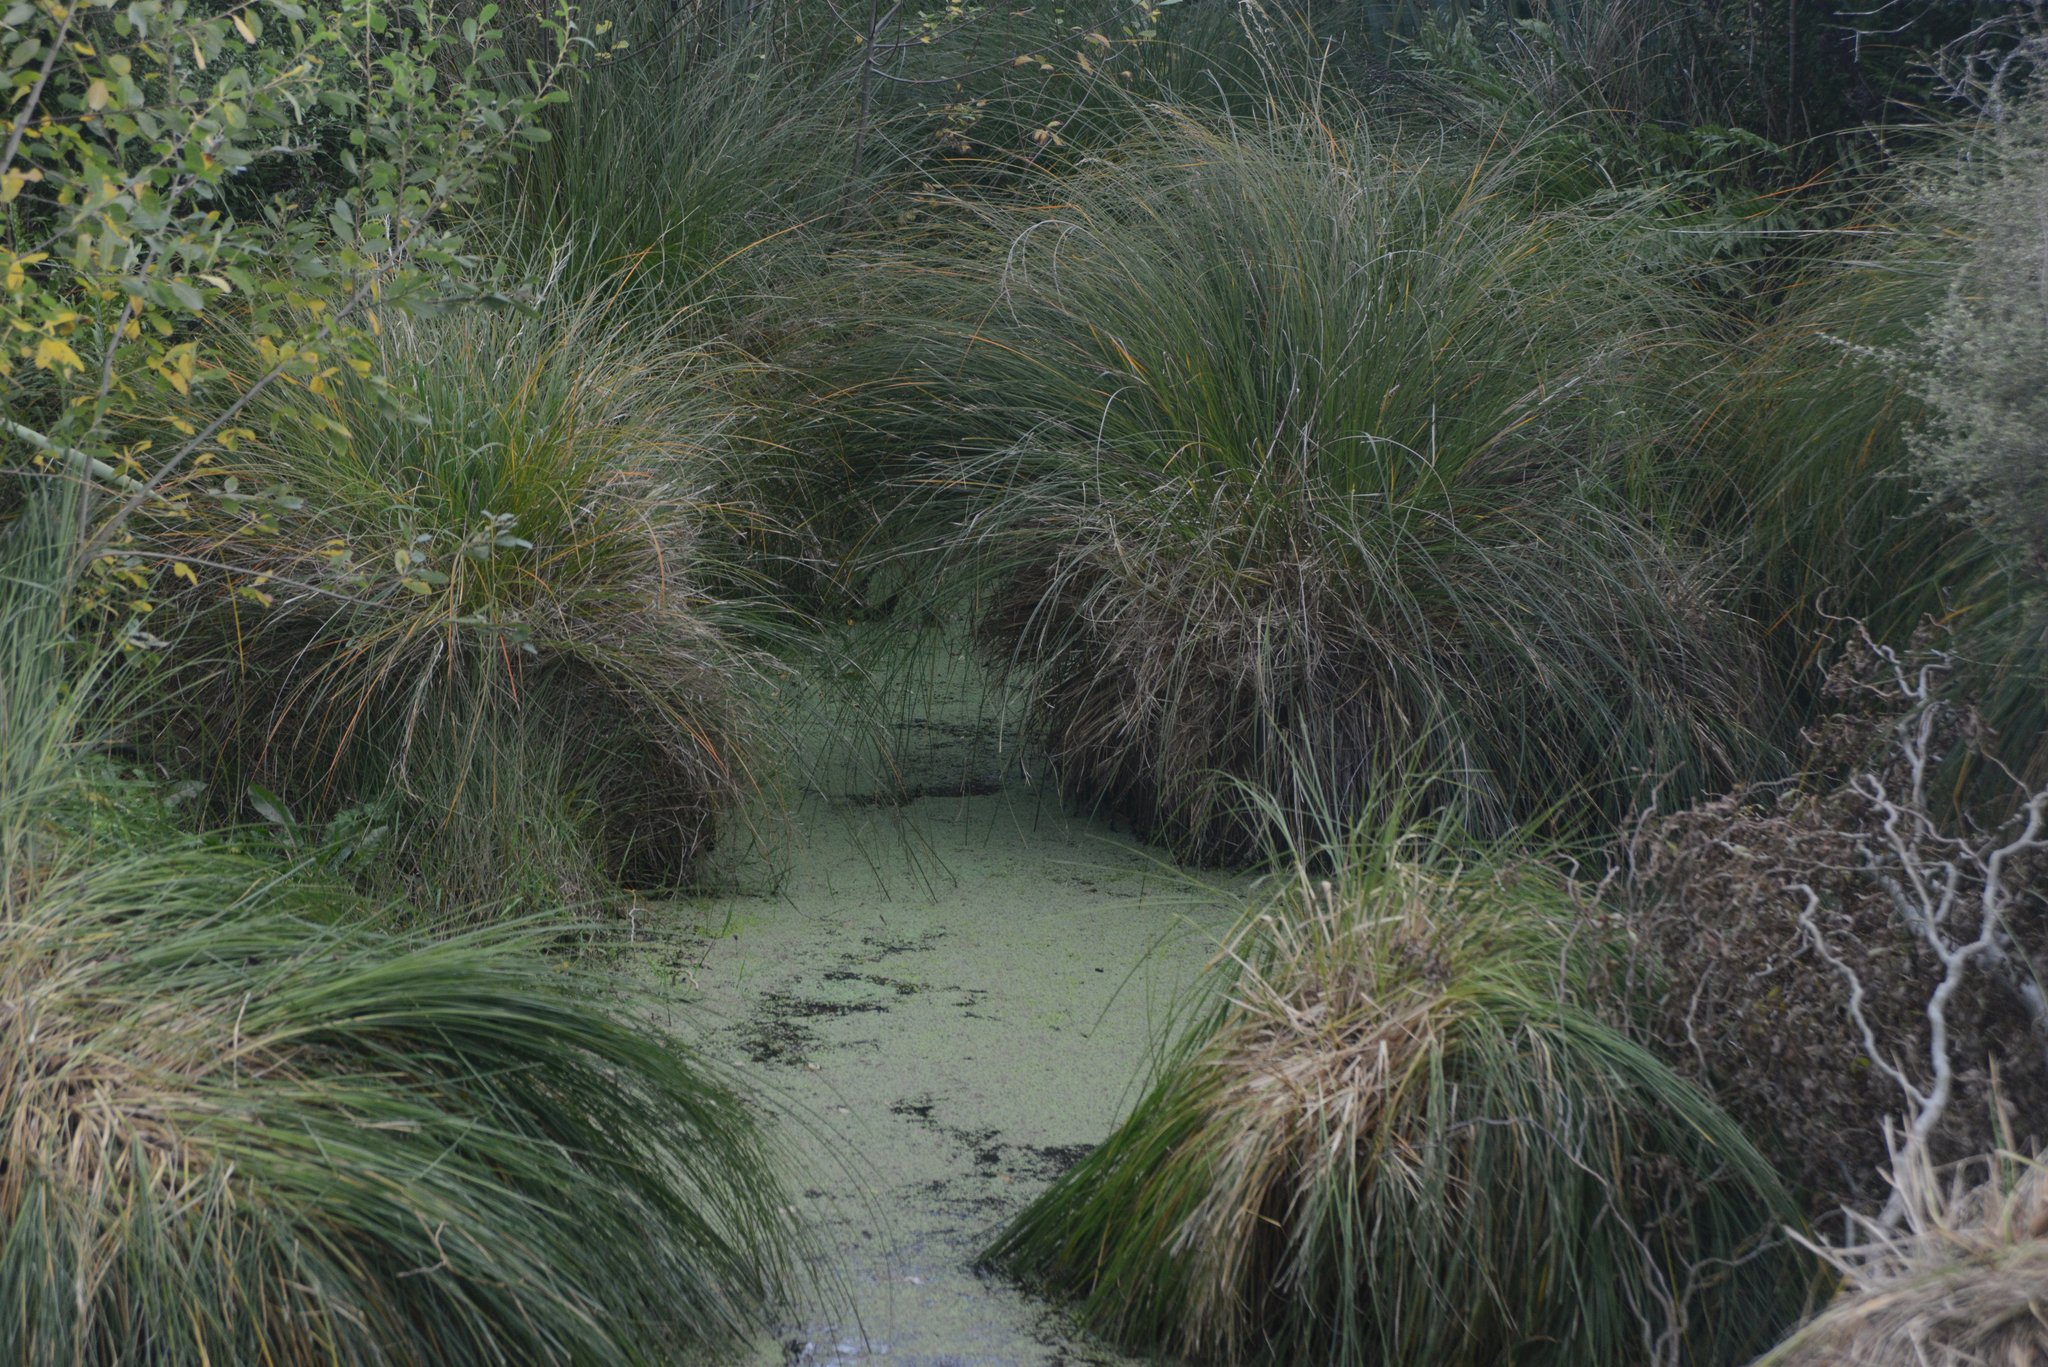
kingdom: Plantae
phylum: Tracheophyta
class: Liliopsida
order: Poales
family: Cyperaceae
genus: Carex
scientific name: Carex secta
